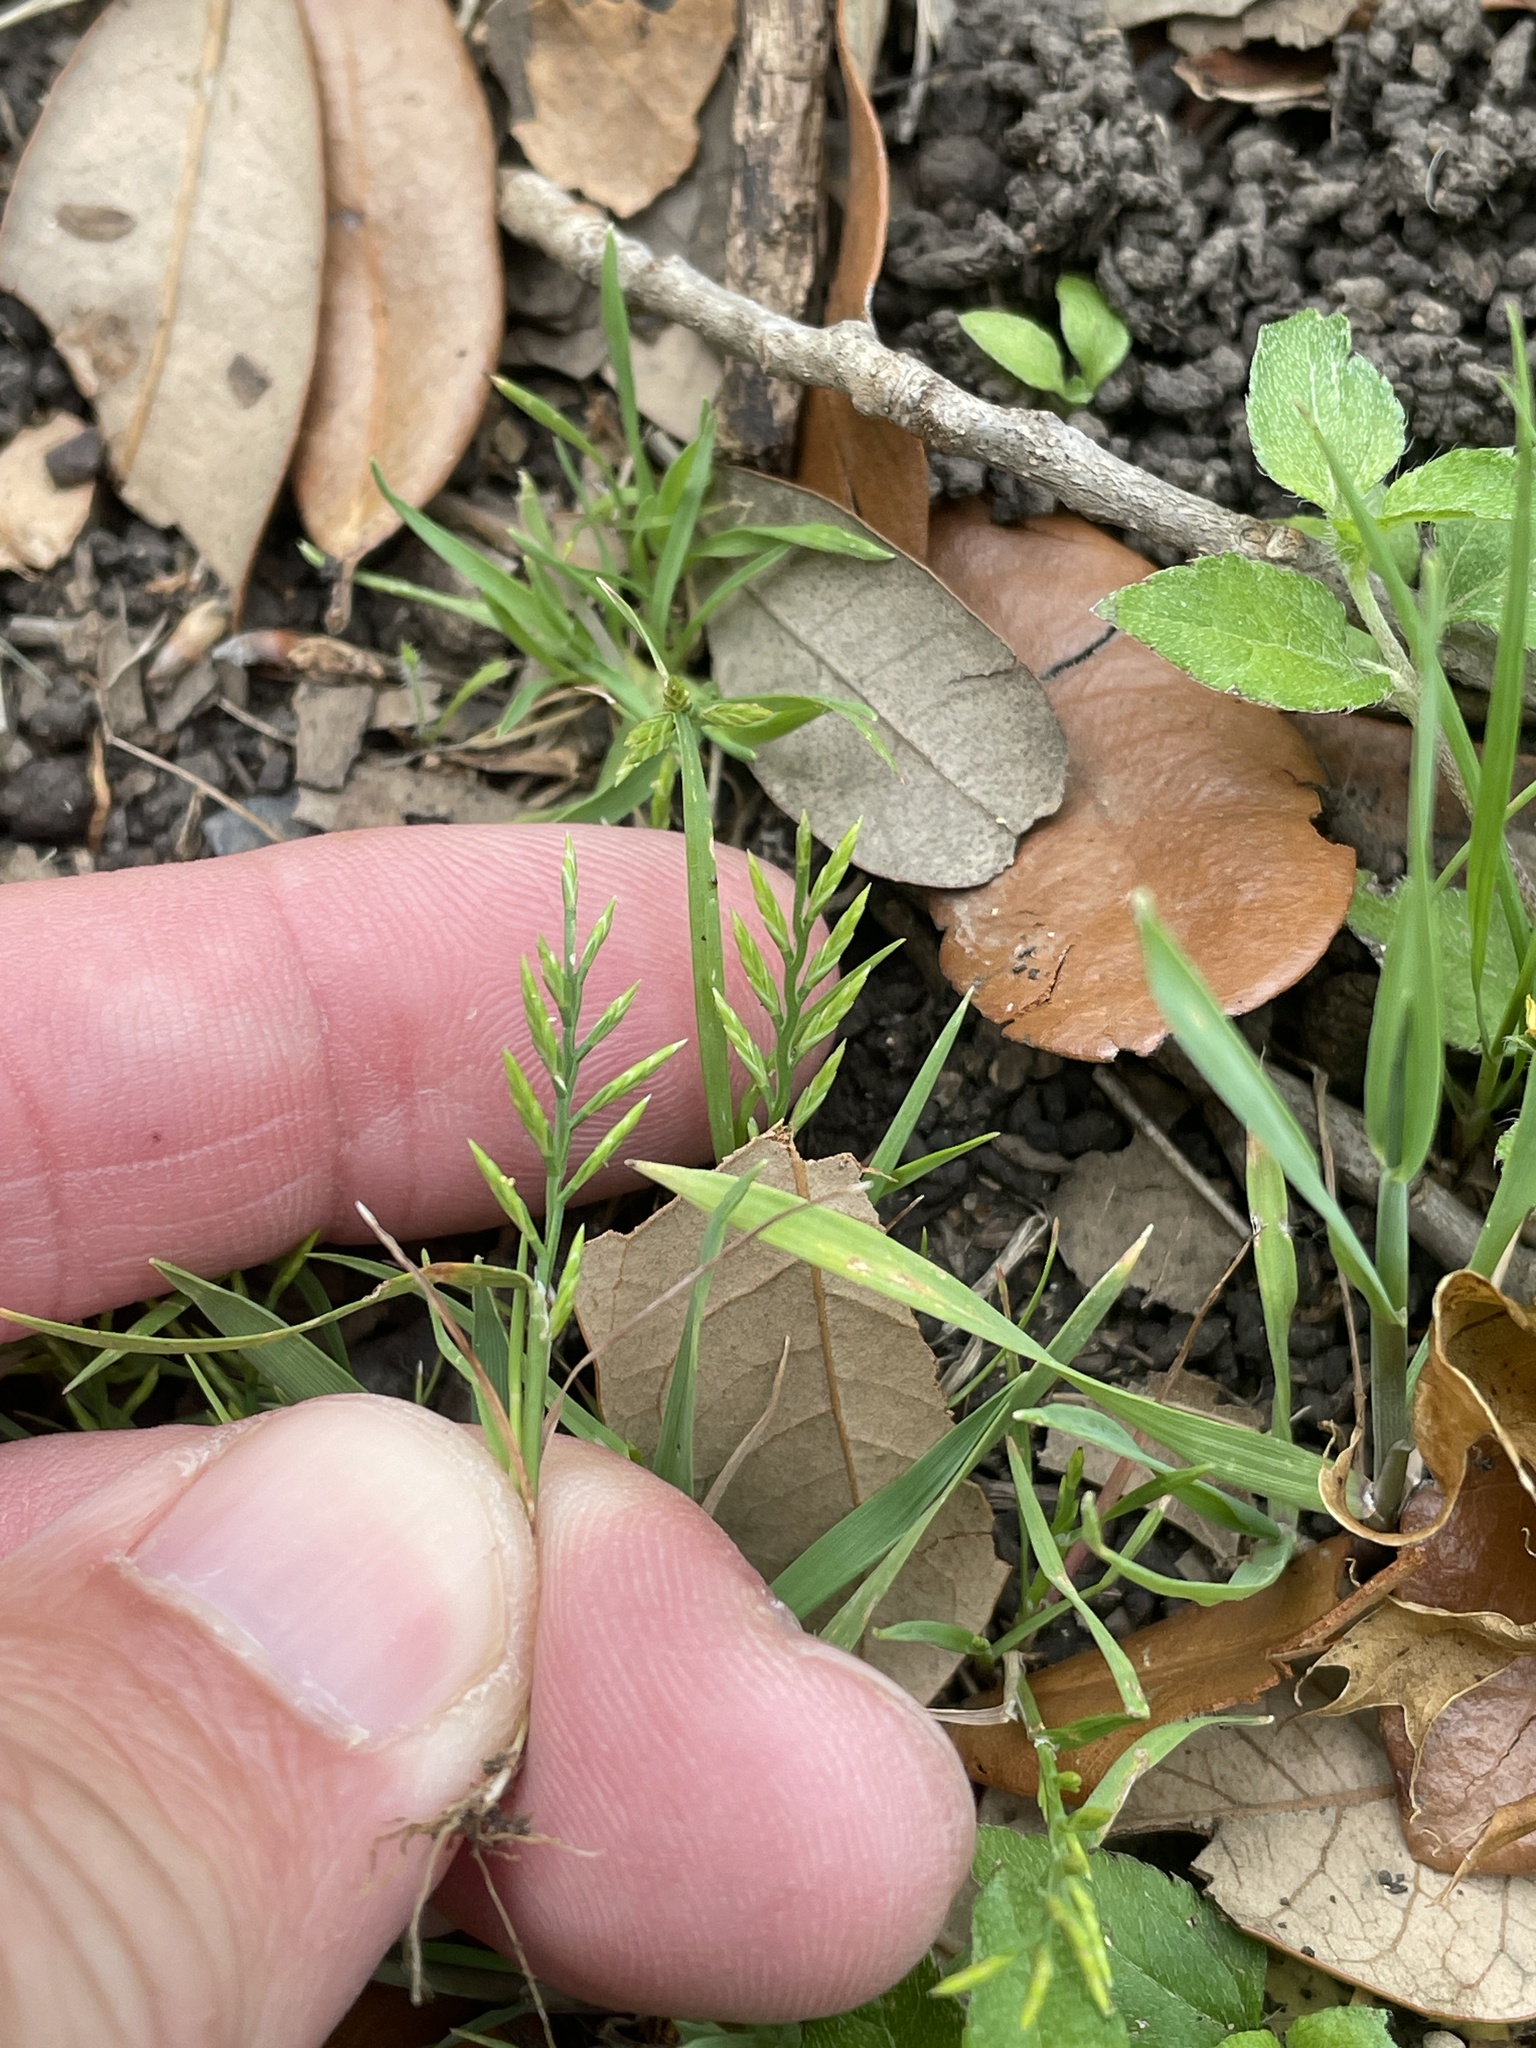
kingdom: Plantae
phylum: Tracheophyta
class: Liliopsida
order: Poales
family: Poaceae
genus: Catapodium
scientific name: Catapodium rigidum
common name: Fern-grass
